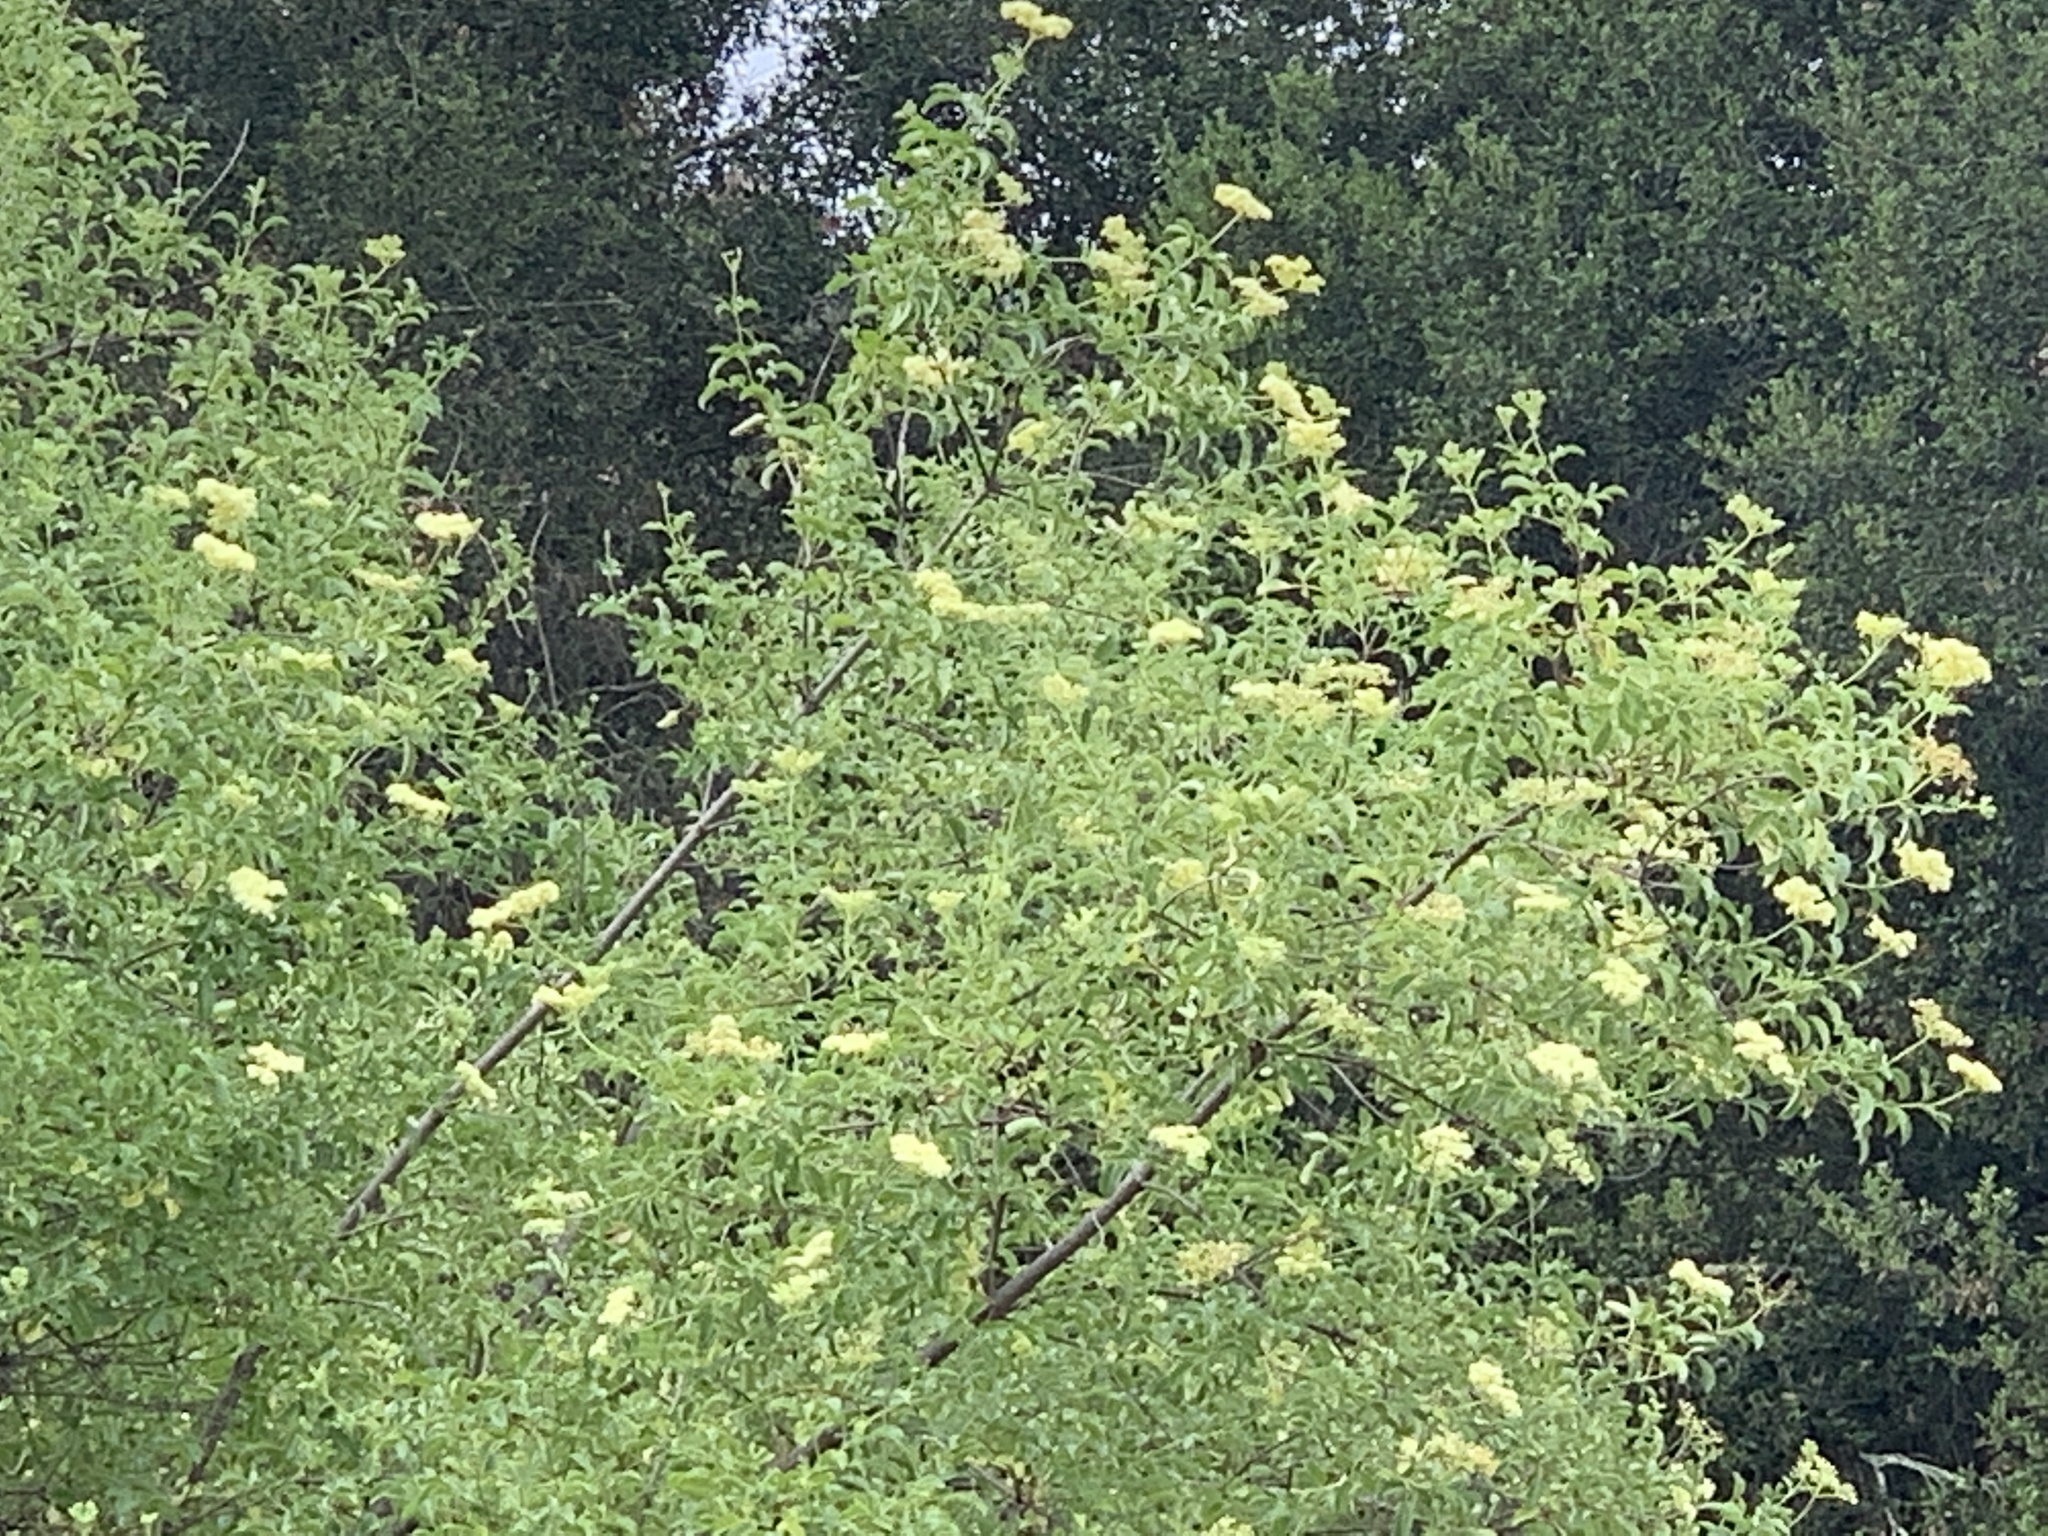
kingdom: Plantae
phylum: Tracheophyta
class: Magnoliopsida
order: Dipsacales
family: Viburnaceae
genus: Sambucus
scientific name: Sambucus cerulea
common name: Blue elder
